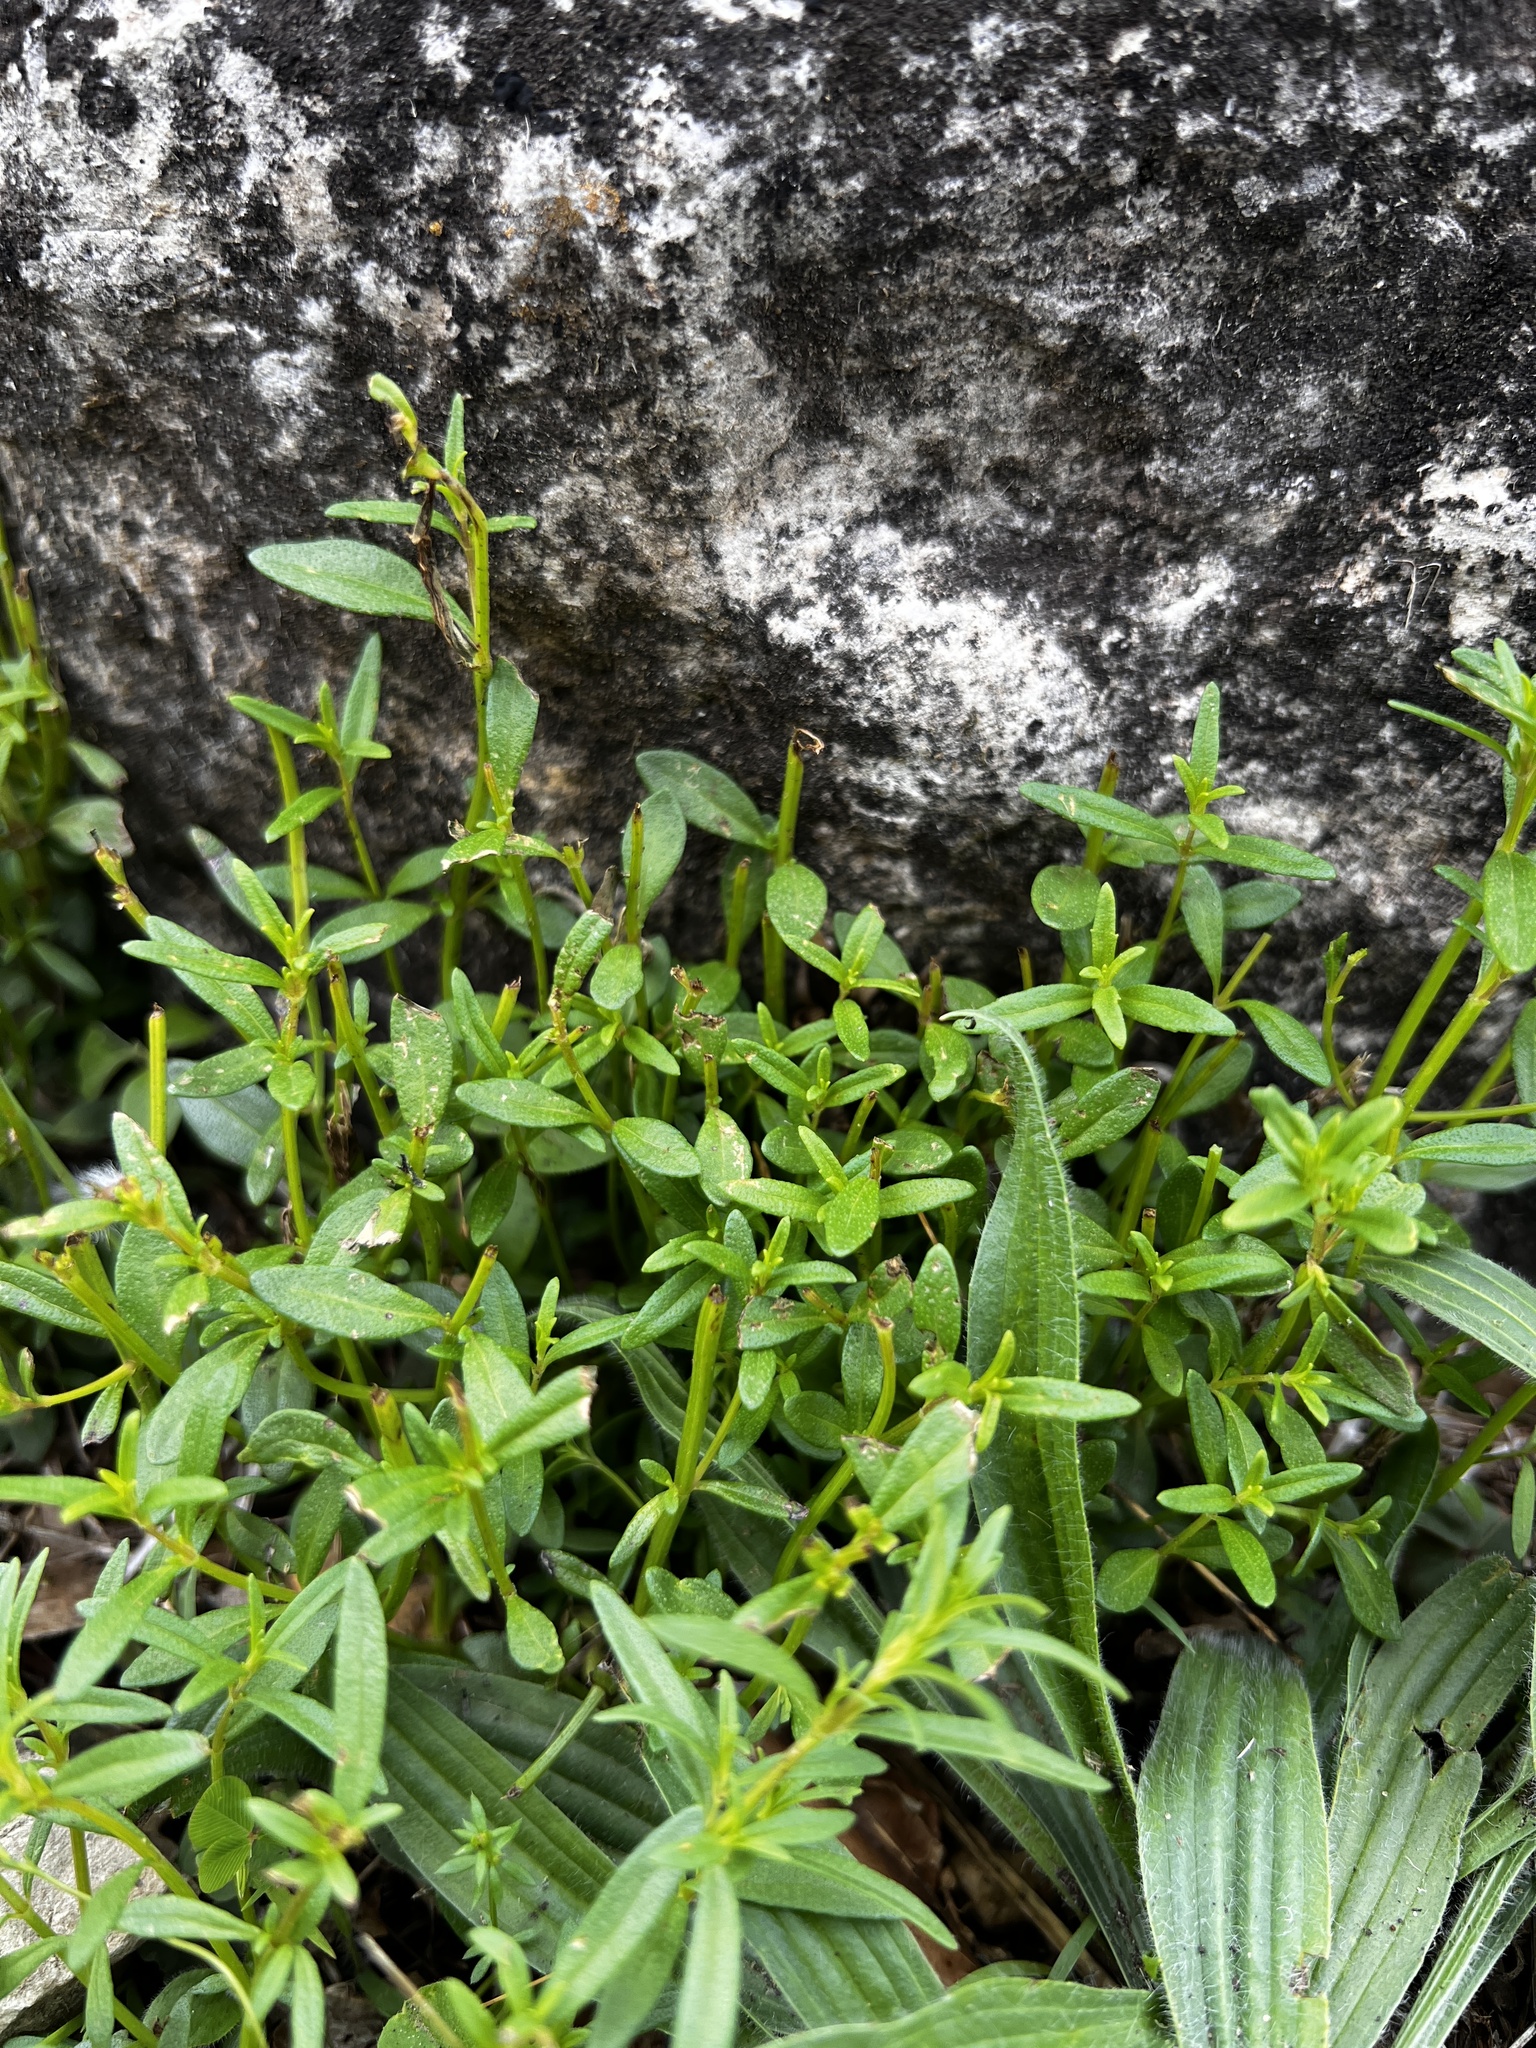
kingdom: Plantae
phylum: Tracheophyta
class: Magnoliopsida
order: Lamiales
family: Lamiaceae
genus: Clinopodium
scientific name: Clinopodium arkansanum
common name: Limestone calamint
